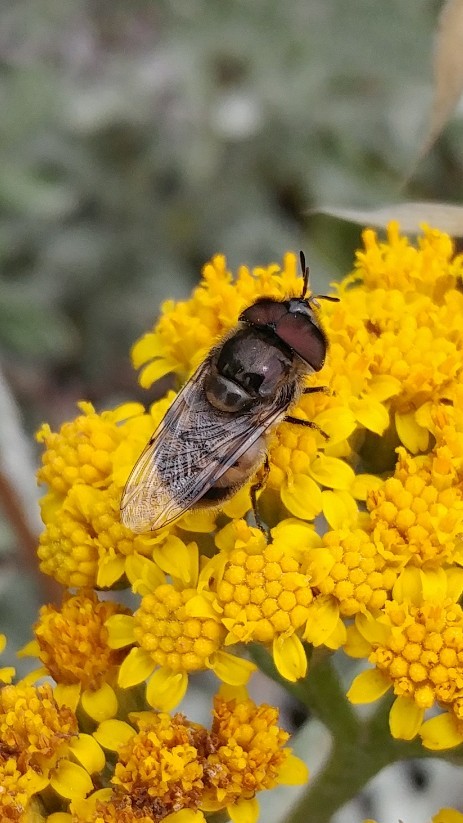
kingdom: Animalia
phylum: Arthropoda
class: Insecta
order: Diptera
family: Syrphidae
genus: Copestylum
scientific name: Copestylum lentum
